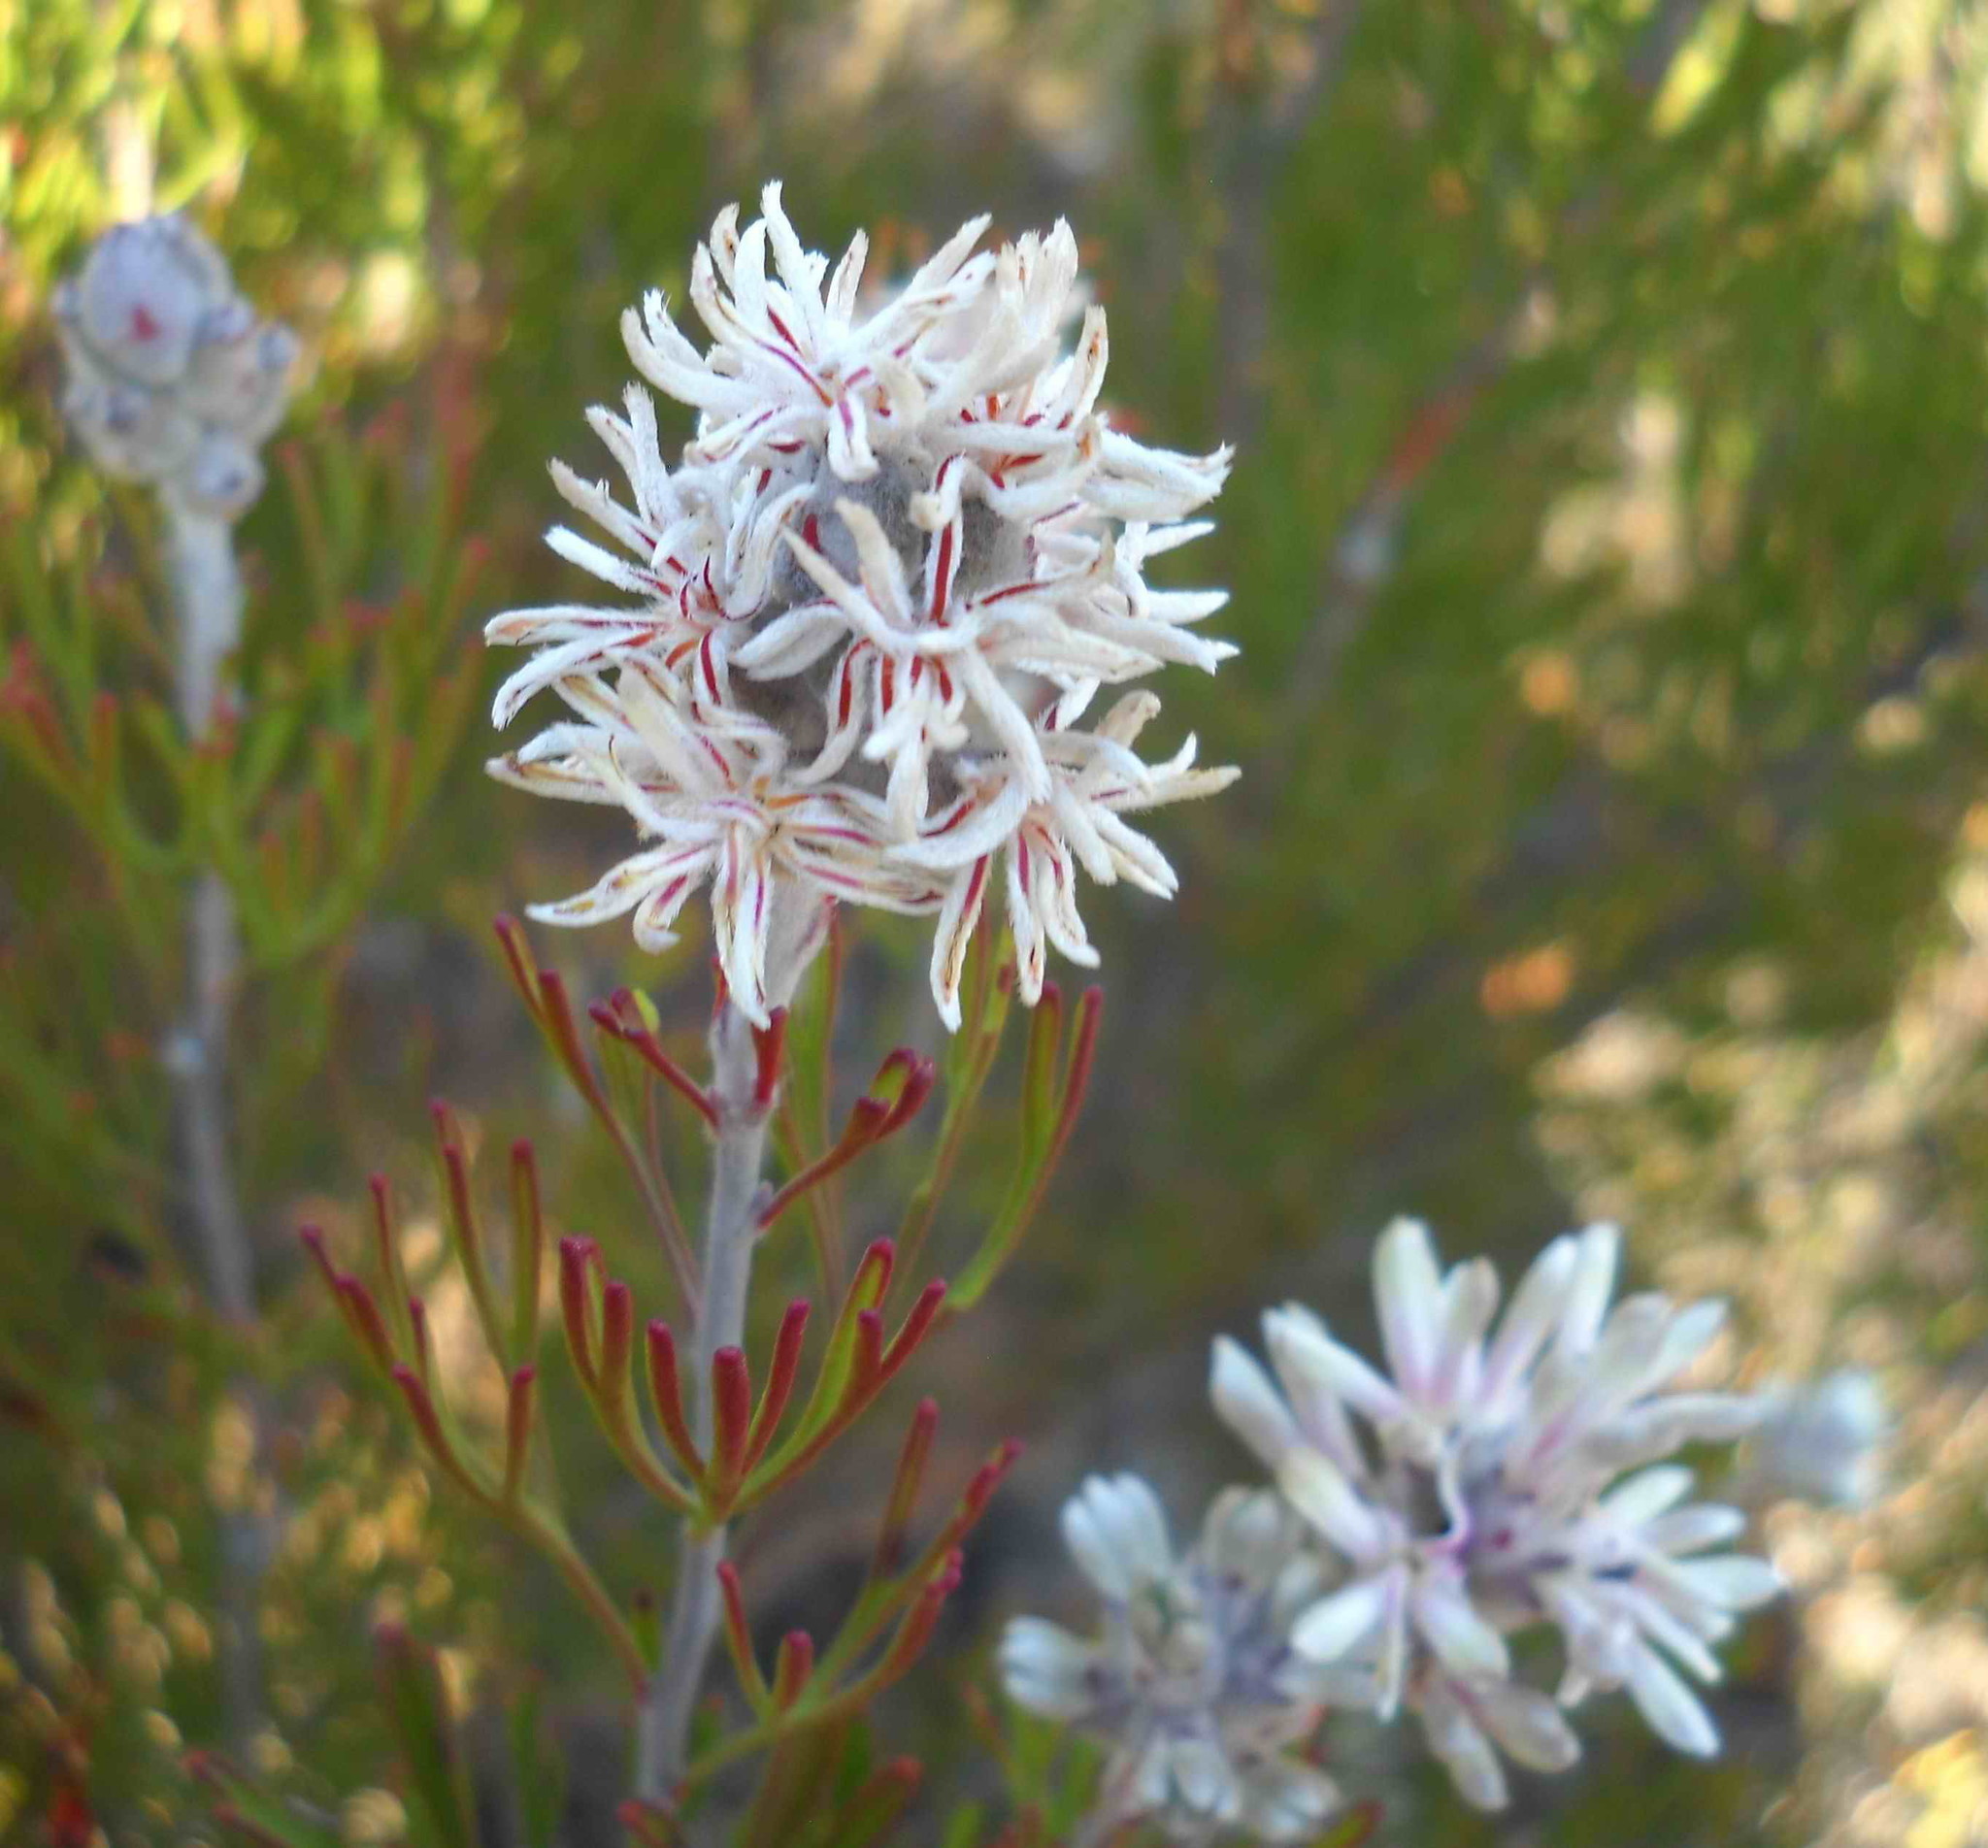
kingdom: Plantae
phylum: Tracheophyta
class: Magnoliopsida
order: Proteales
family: Proteaceae
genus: Paranomus
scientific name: Paranomus dregei
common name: Scented sceptre
